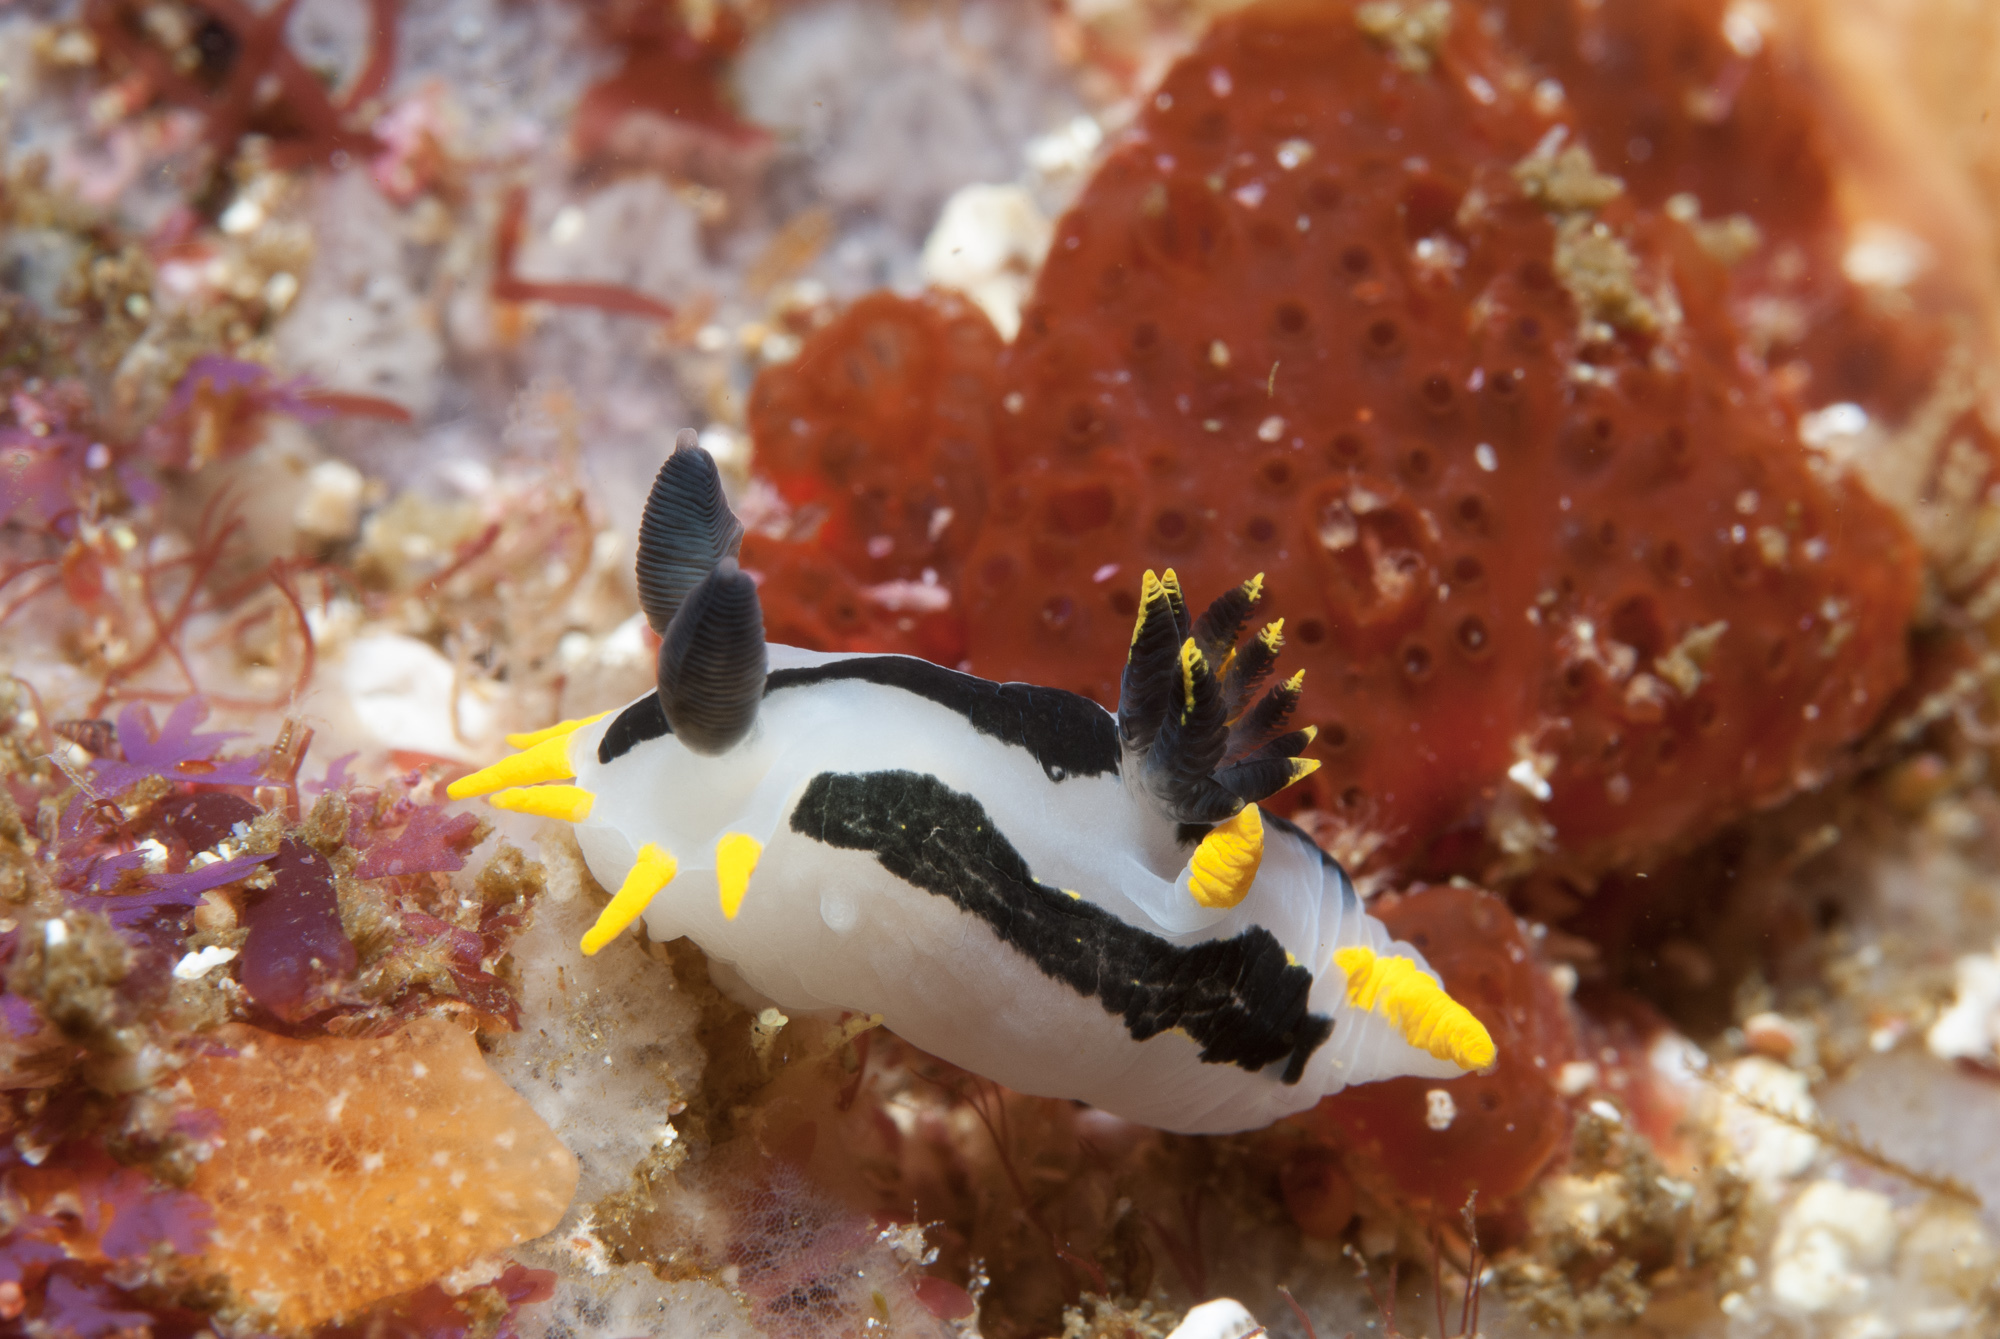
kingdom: Animalia
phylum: Mollusca
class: Gastropoda
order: Nudibranchia
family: Polyceridae
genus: Polycera
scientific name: Polycera capensis
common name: Crowned nudibranch
